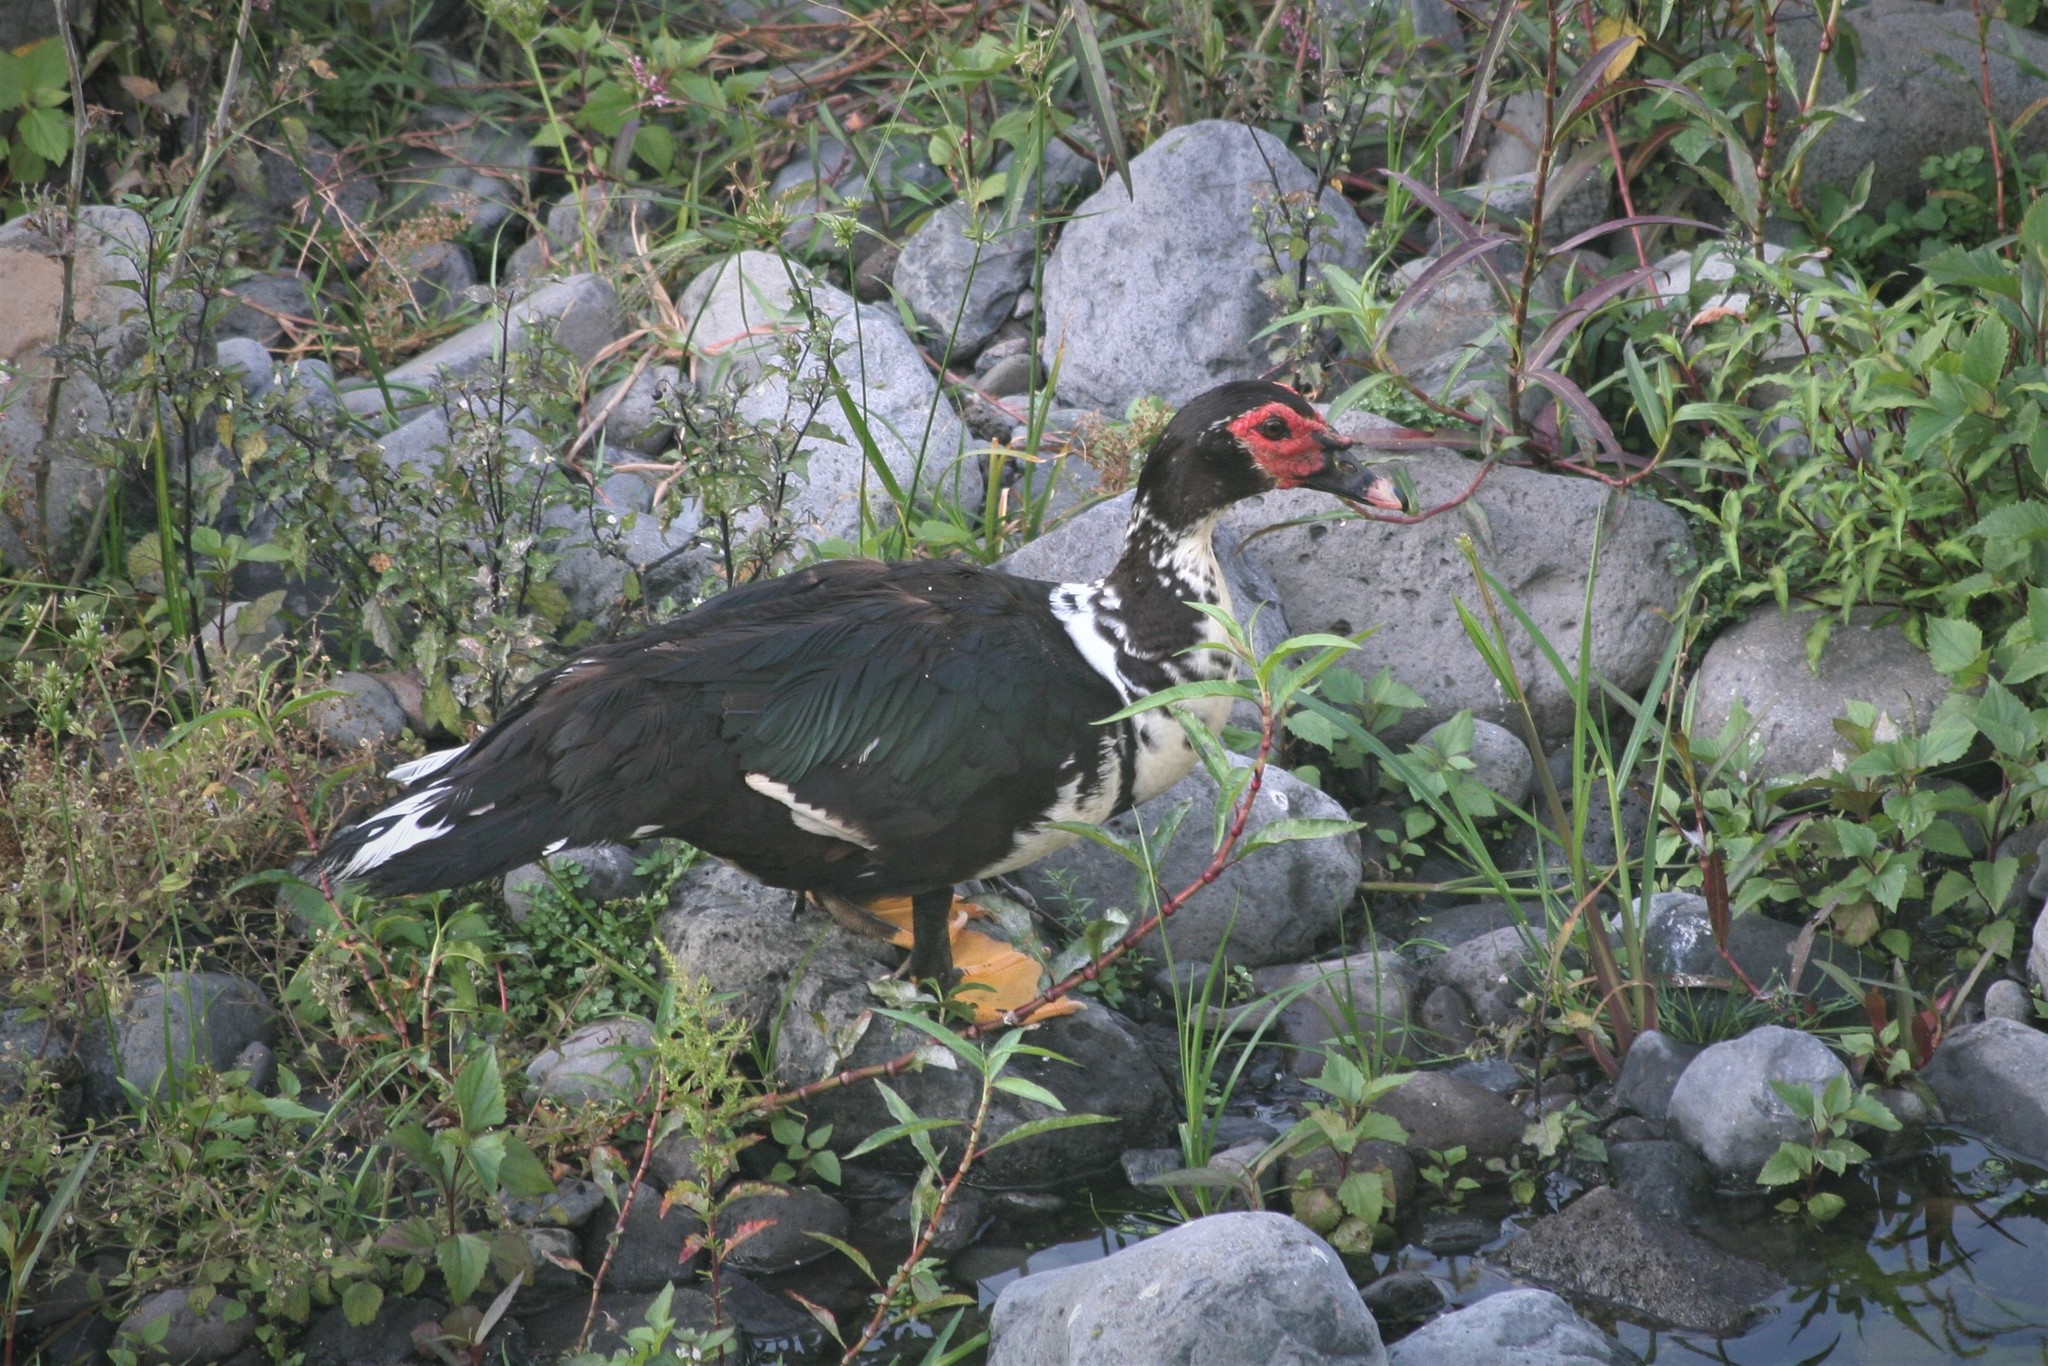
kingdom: Animalia
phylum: Chordata
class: Aves
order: Anseriformes
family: Anatidae
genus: Cairina
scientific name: Cairina moschata
